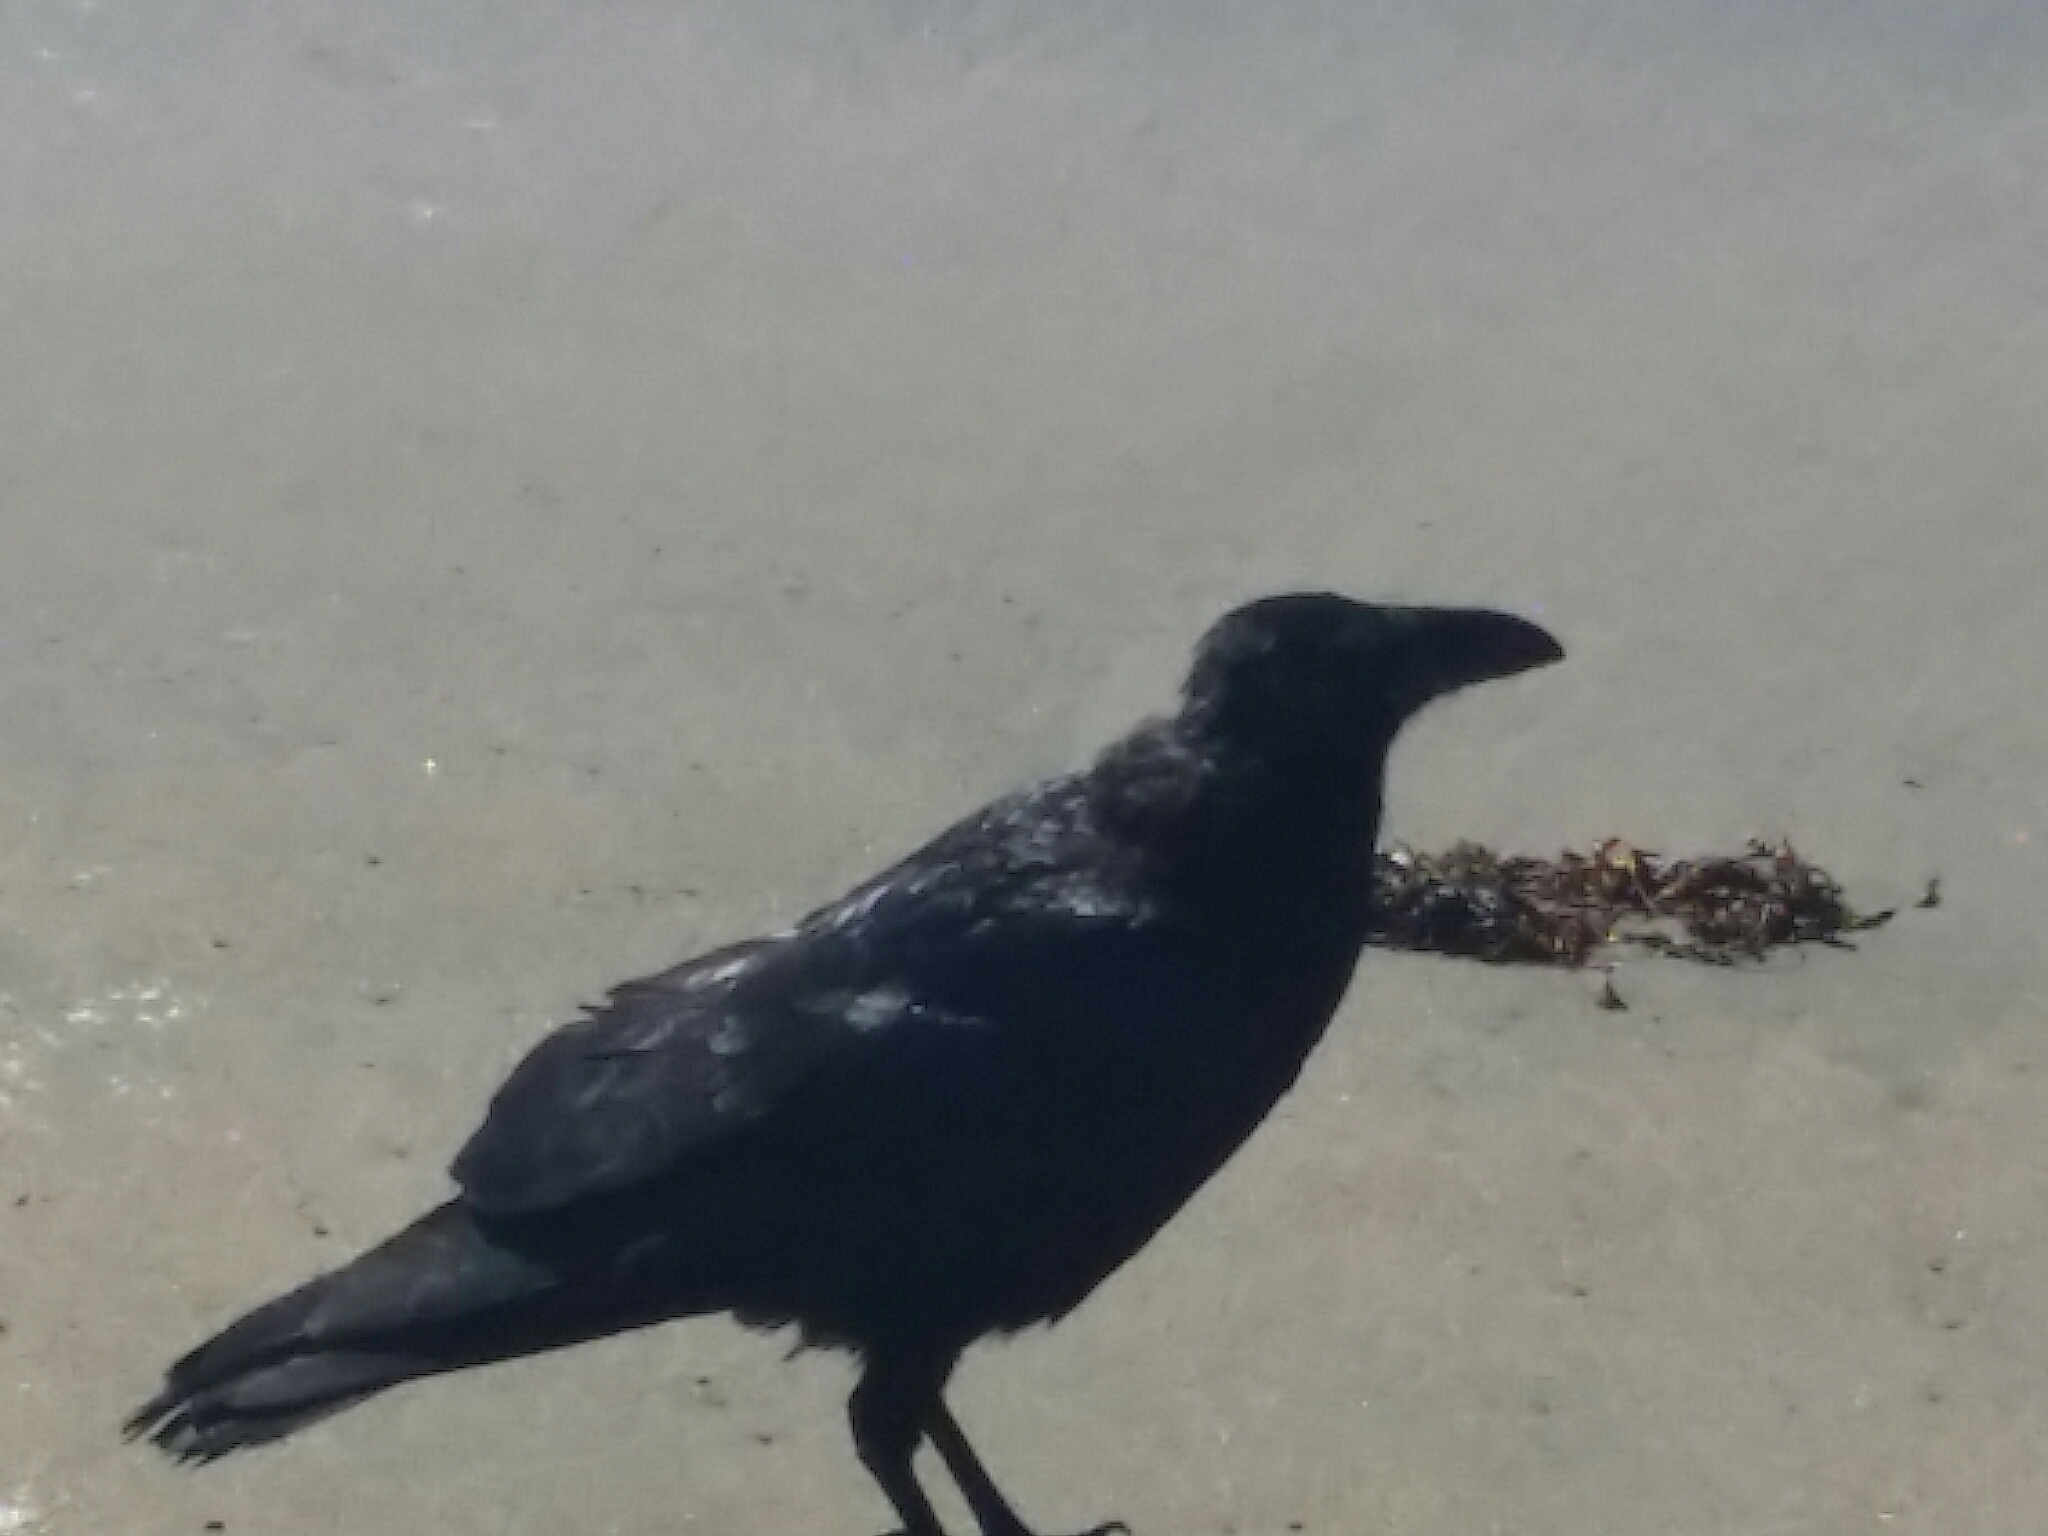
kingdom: Animalia
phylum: Chordata
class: Aves
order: Passeriformes
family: Corvidae
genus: Corvus
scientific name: Corvus corax
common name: Common raven
